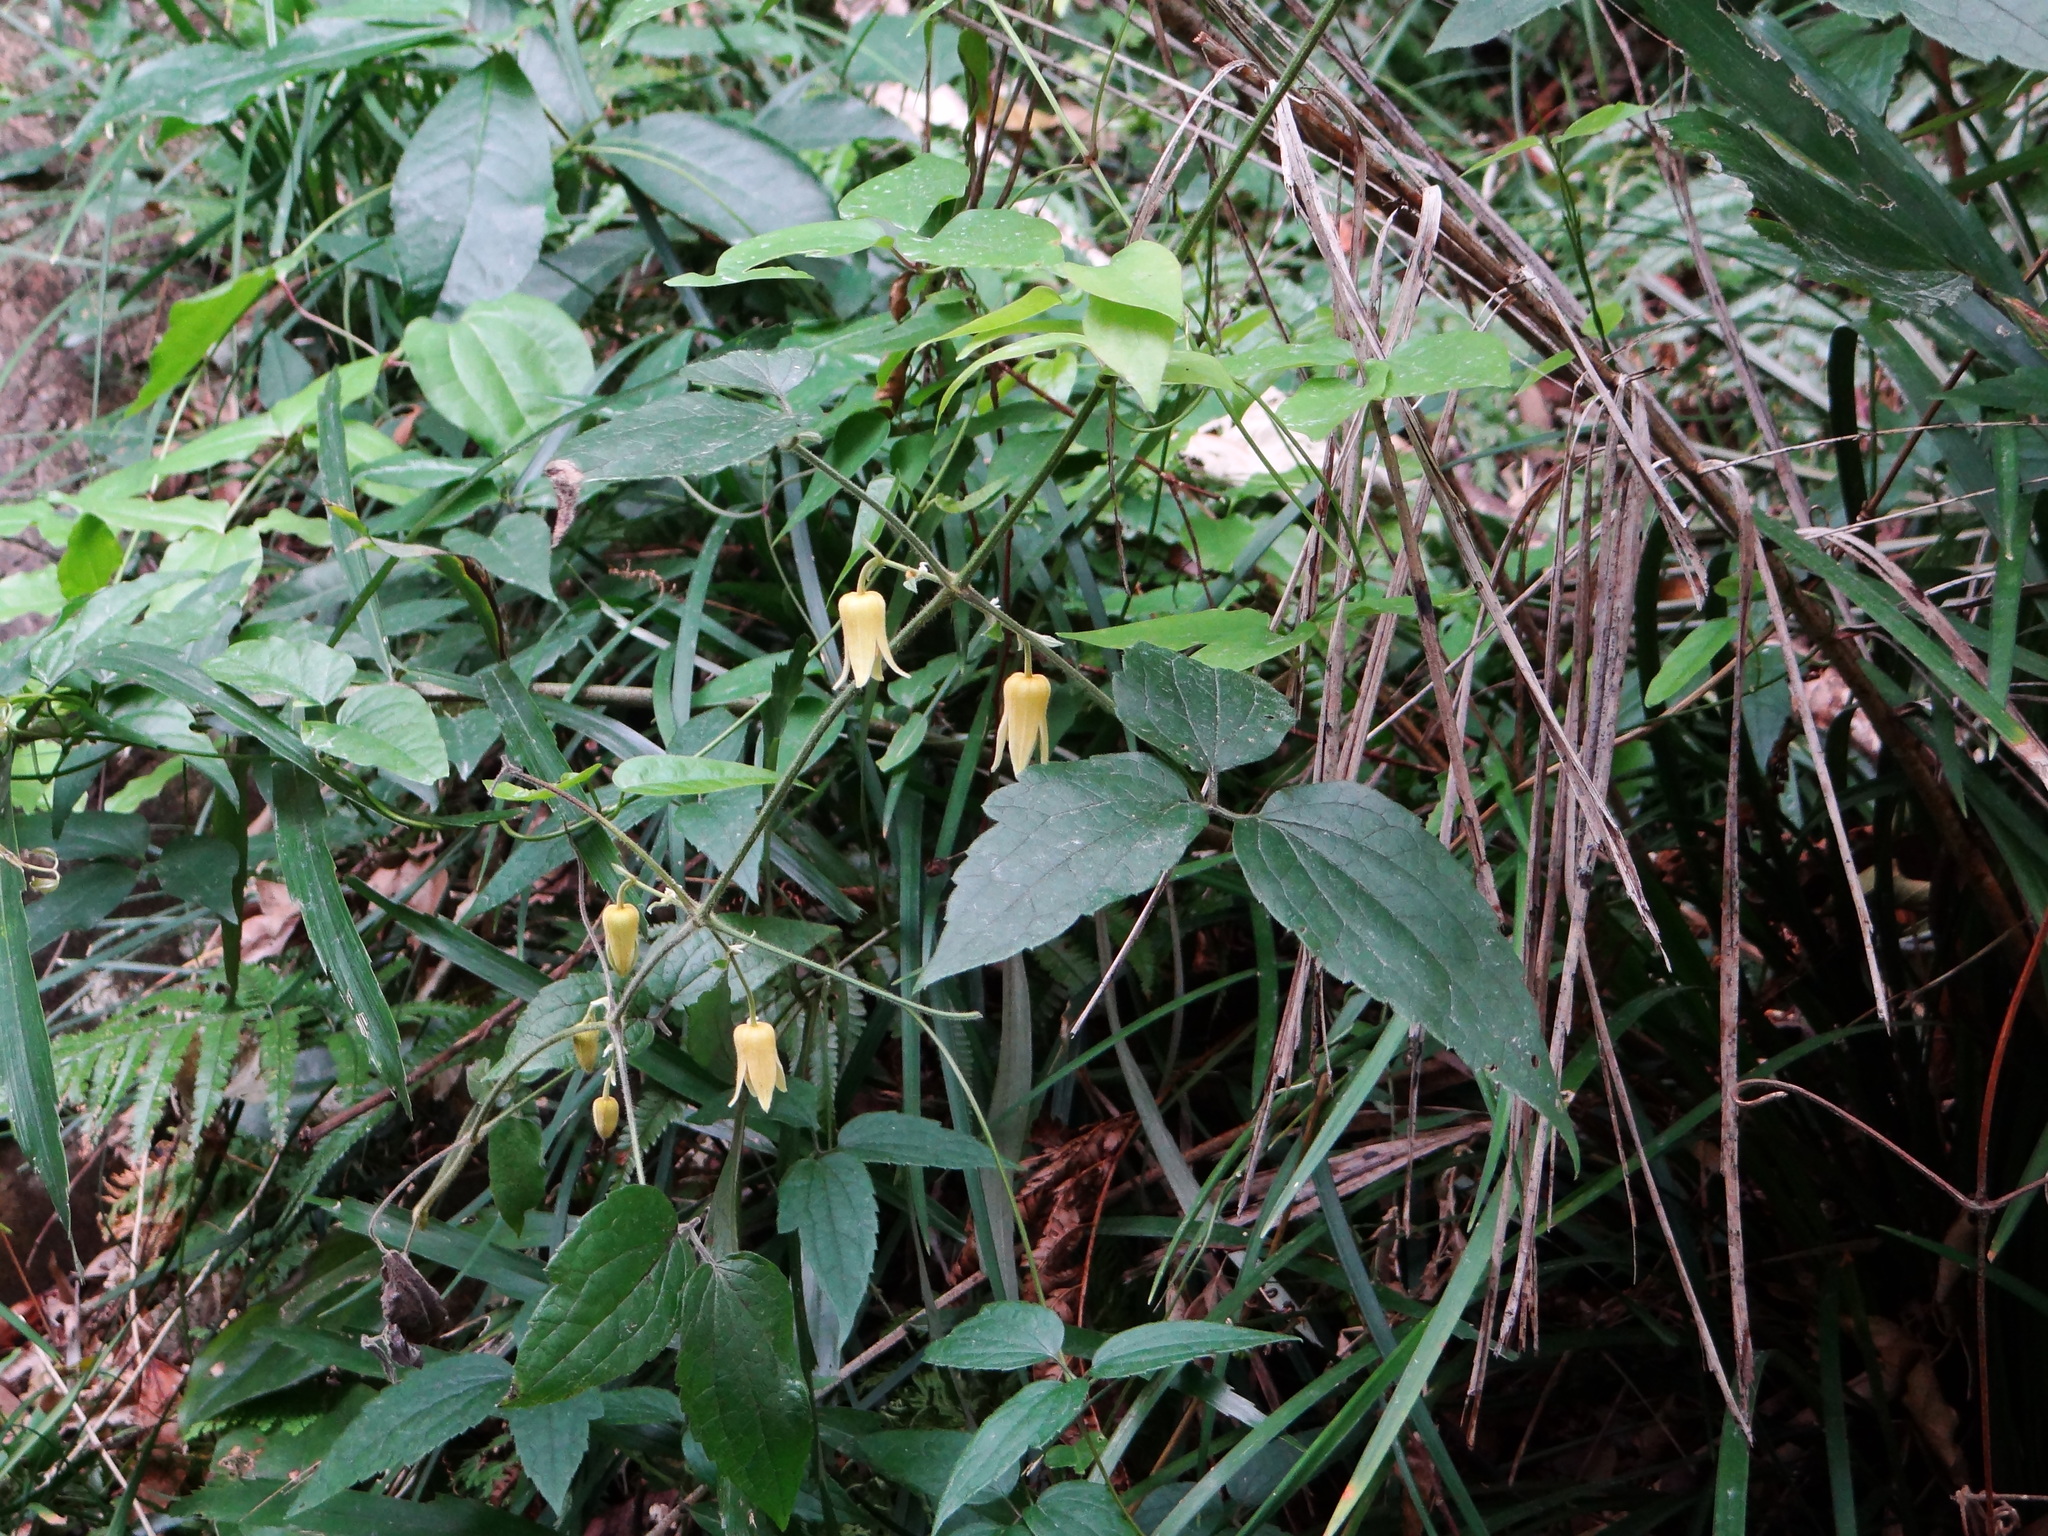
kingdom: Plantae
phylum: Tracheophyta
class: Magnoliopsida
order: Ranunculales
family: Ranunculaceae
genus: Clematis
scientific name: Clematis leschenaultiana
